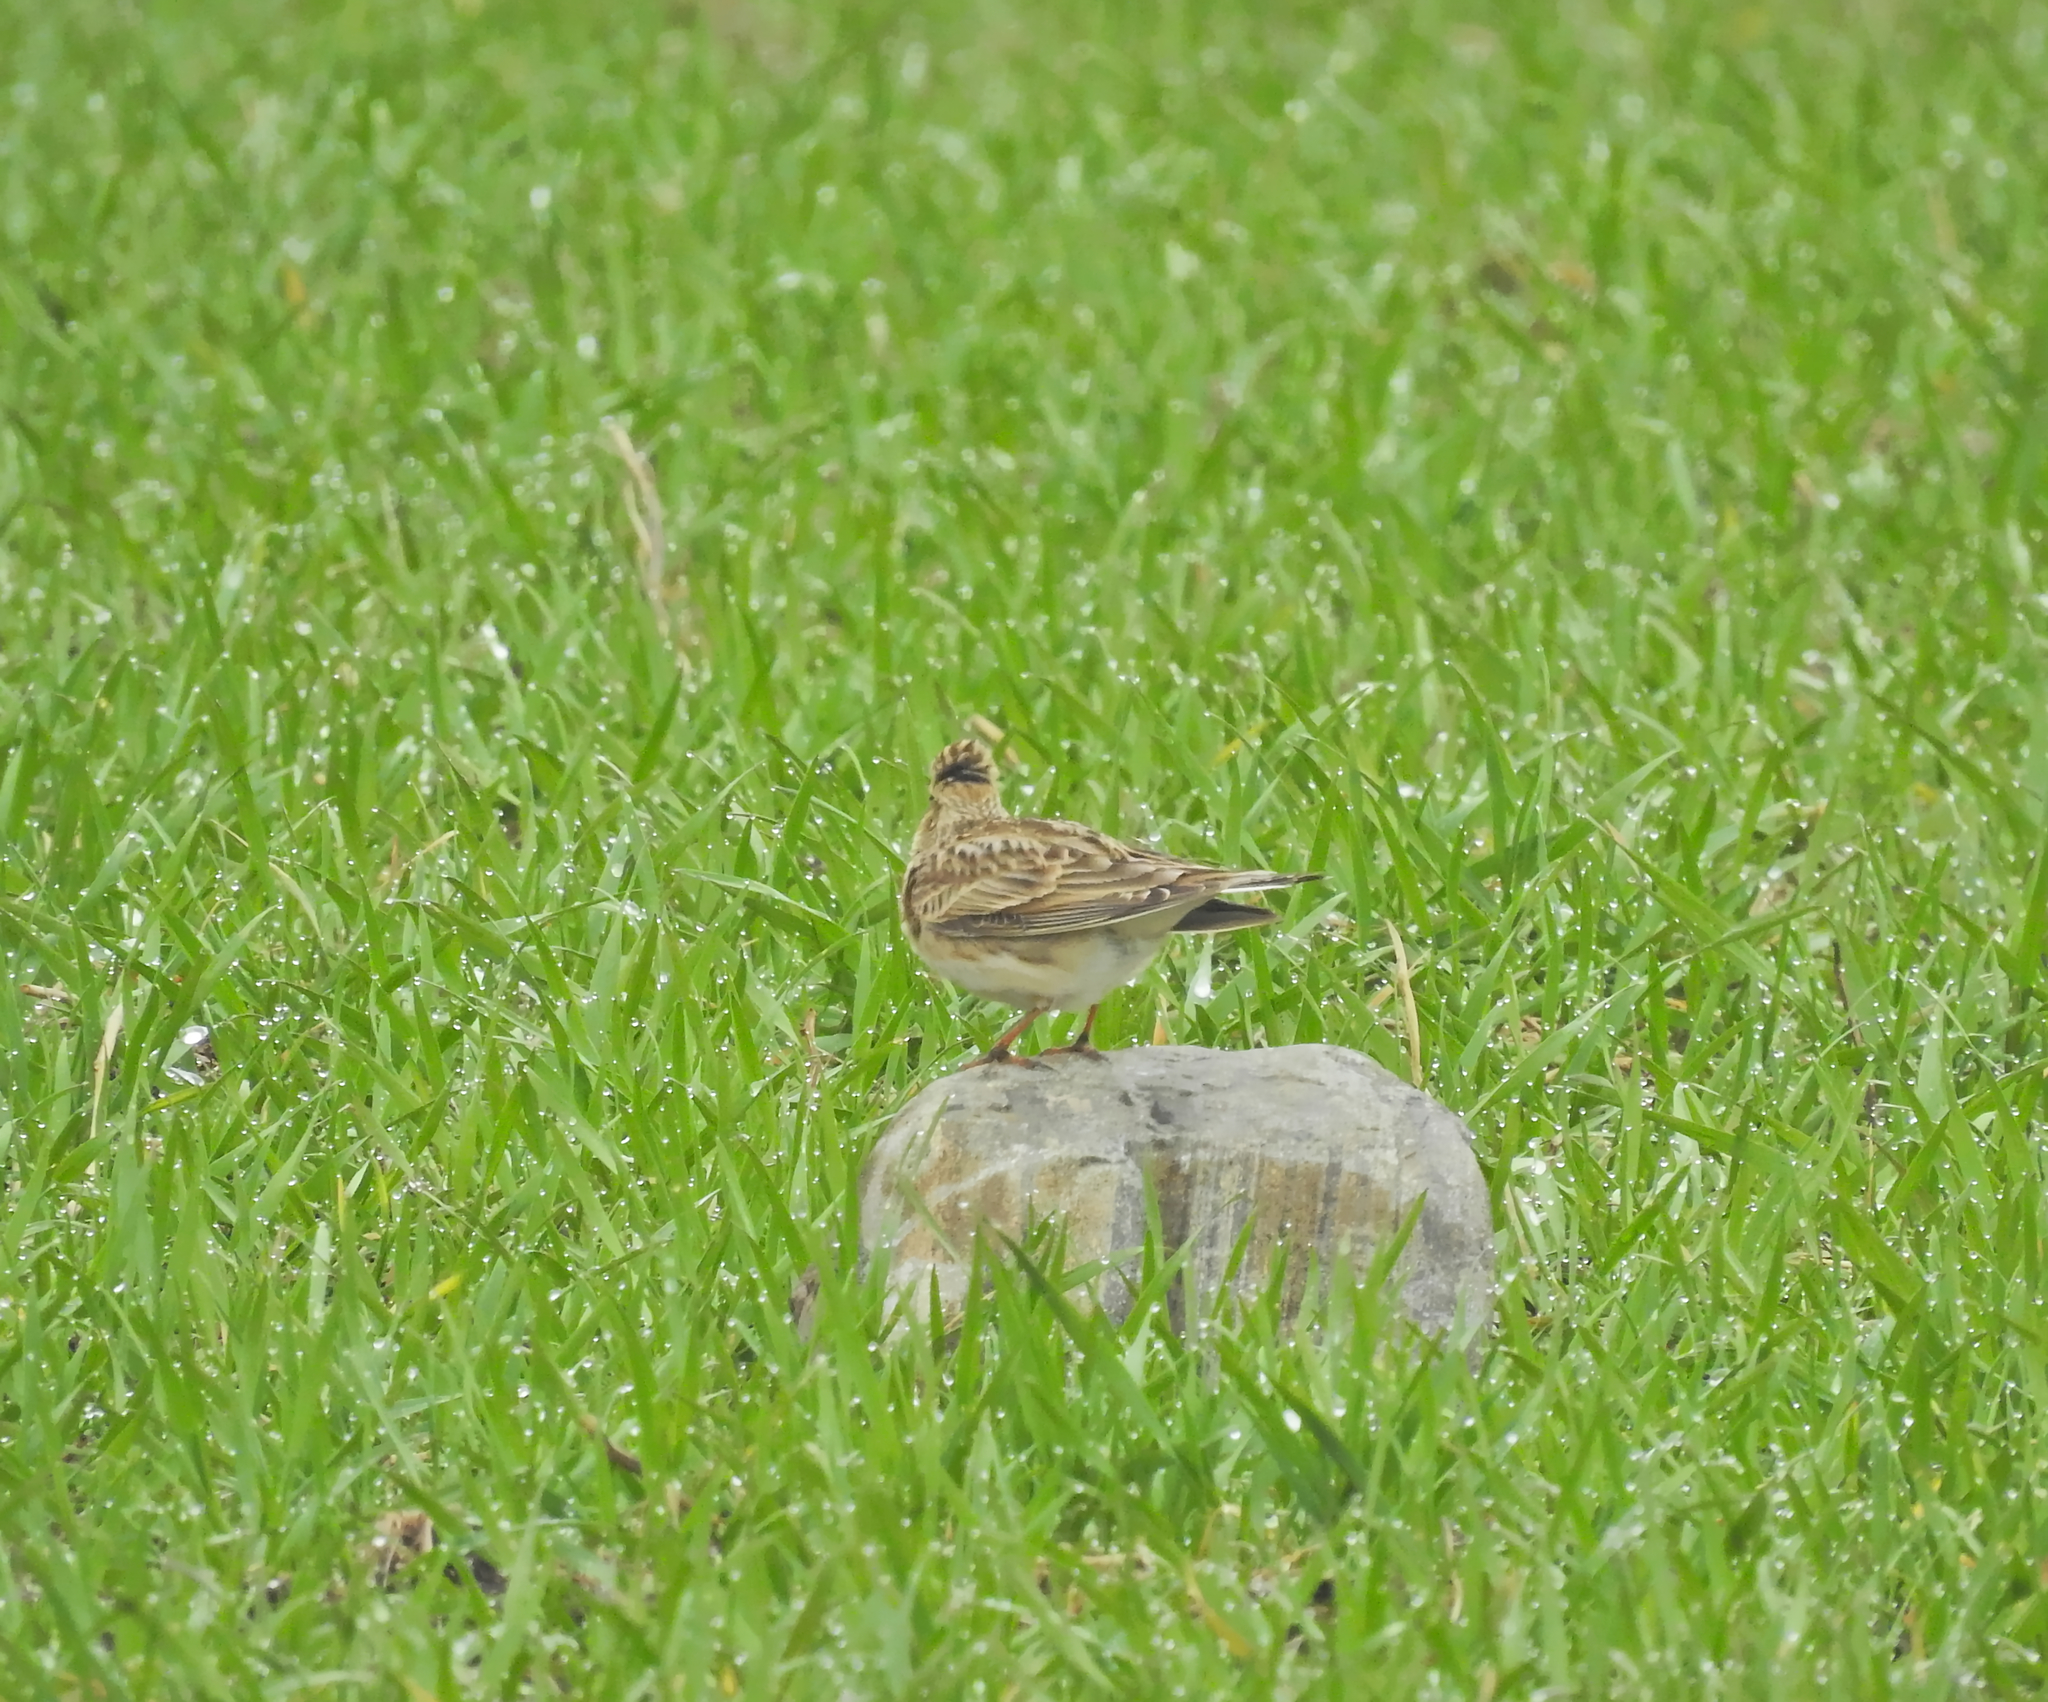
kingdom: Animalia
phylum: Chordata
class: Aves
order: Passeriformes
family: Alaudidae
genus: Alauda
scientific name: Alauda arvensis
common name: Eurasian skylark
